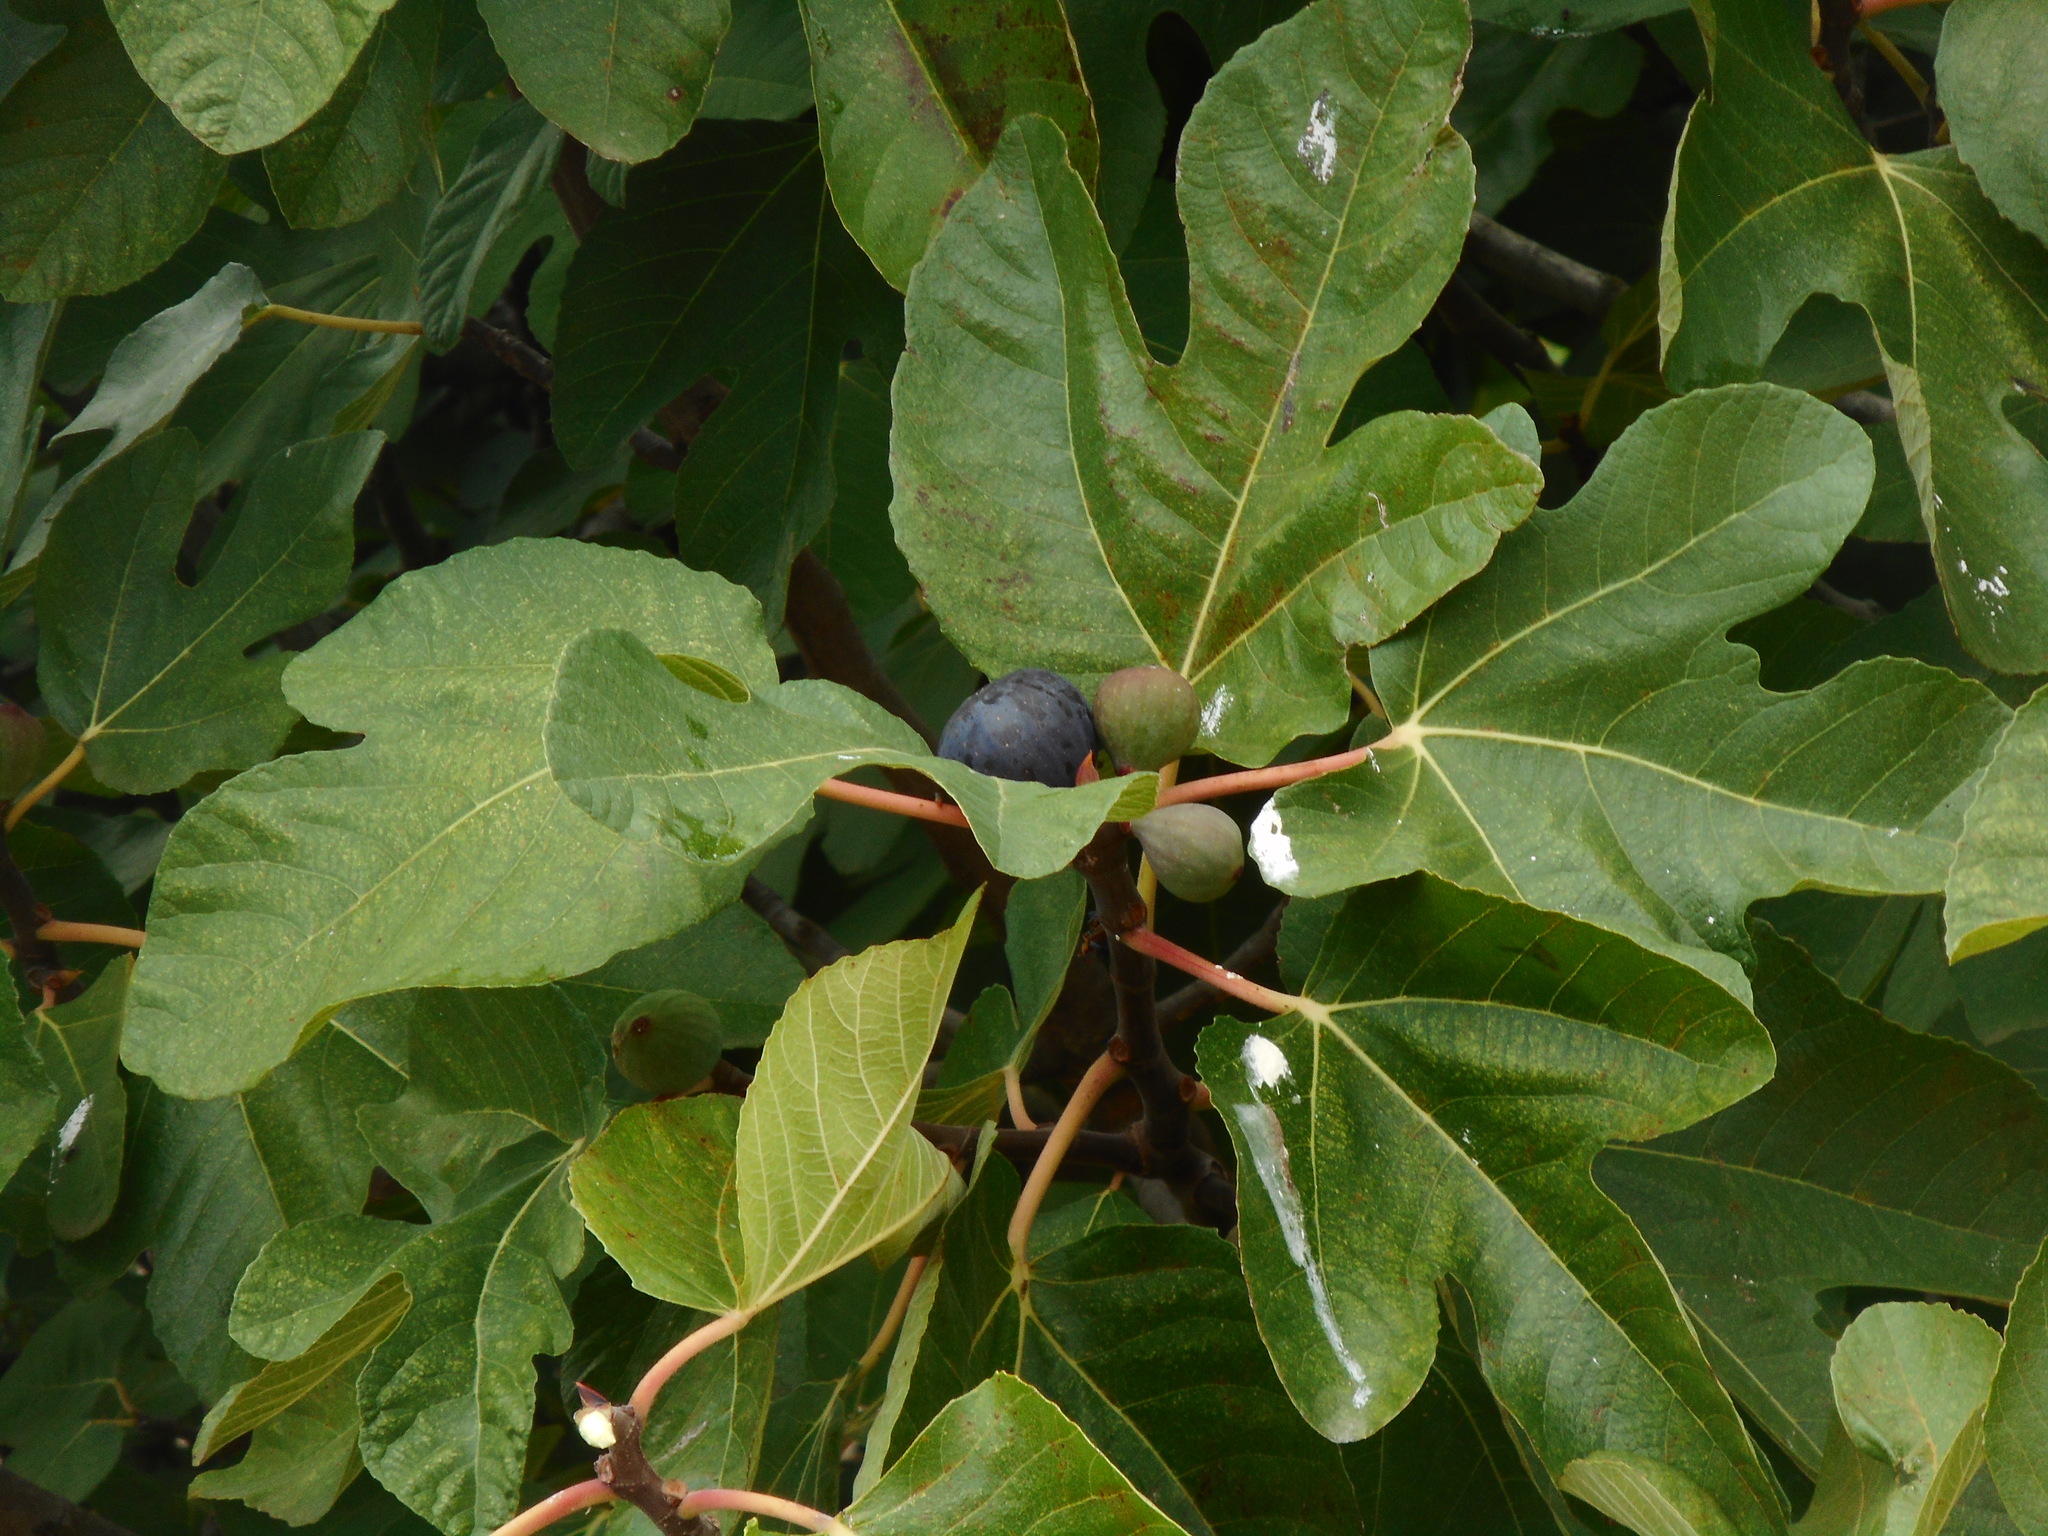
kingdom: Plantae
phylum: Tracheophyta
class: Magnoliopsida
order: Rosales
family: Moraceae
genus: Ficus
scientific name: Ficus carica
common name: Fig
